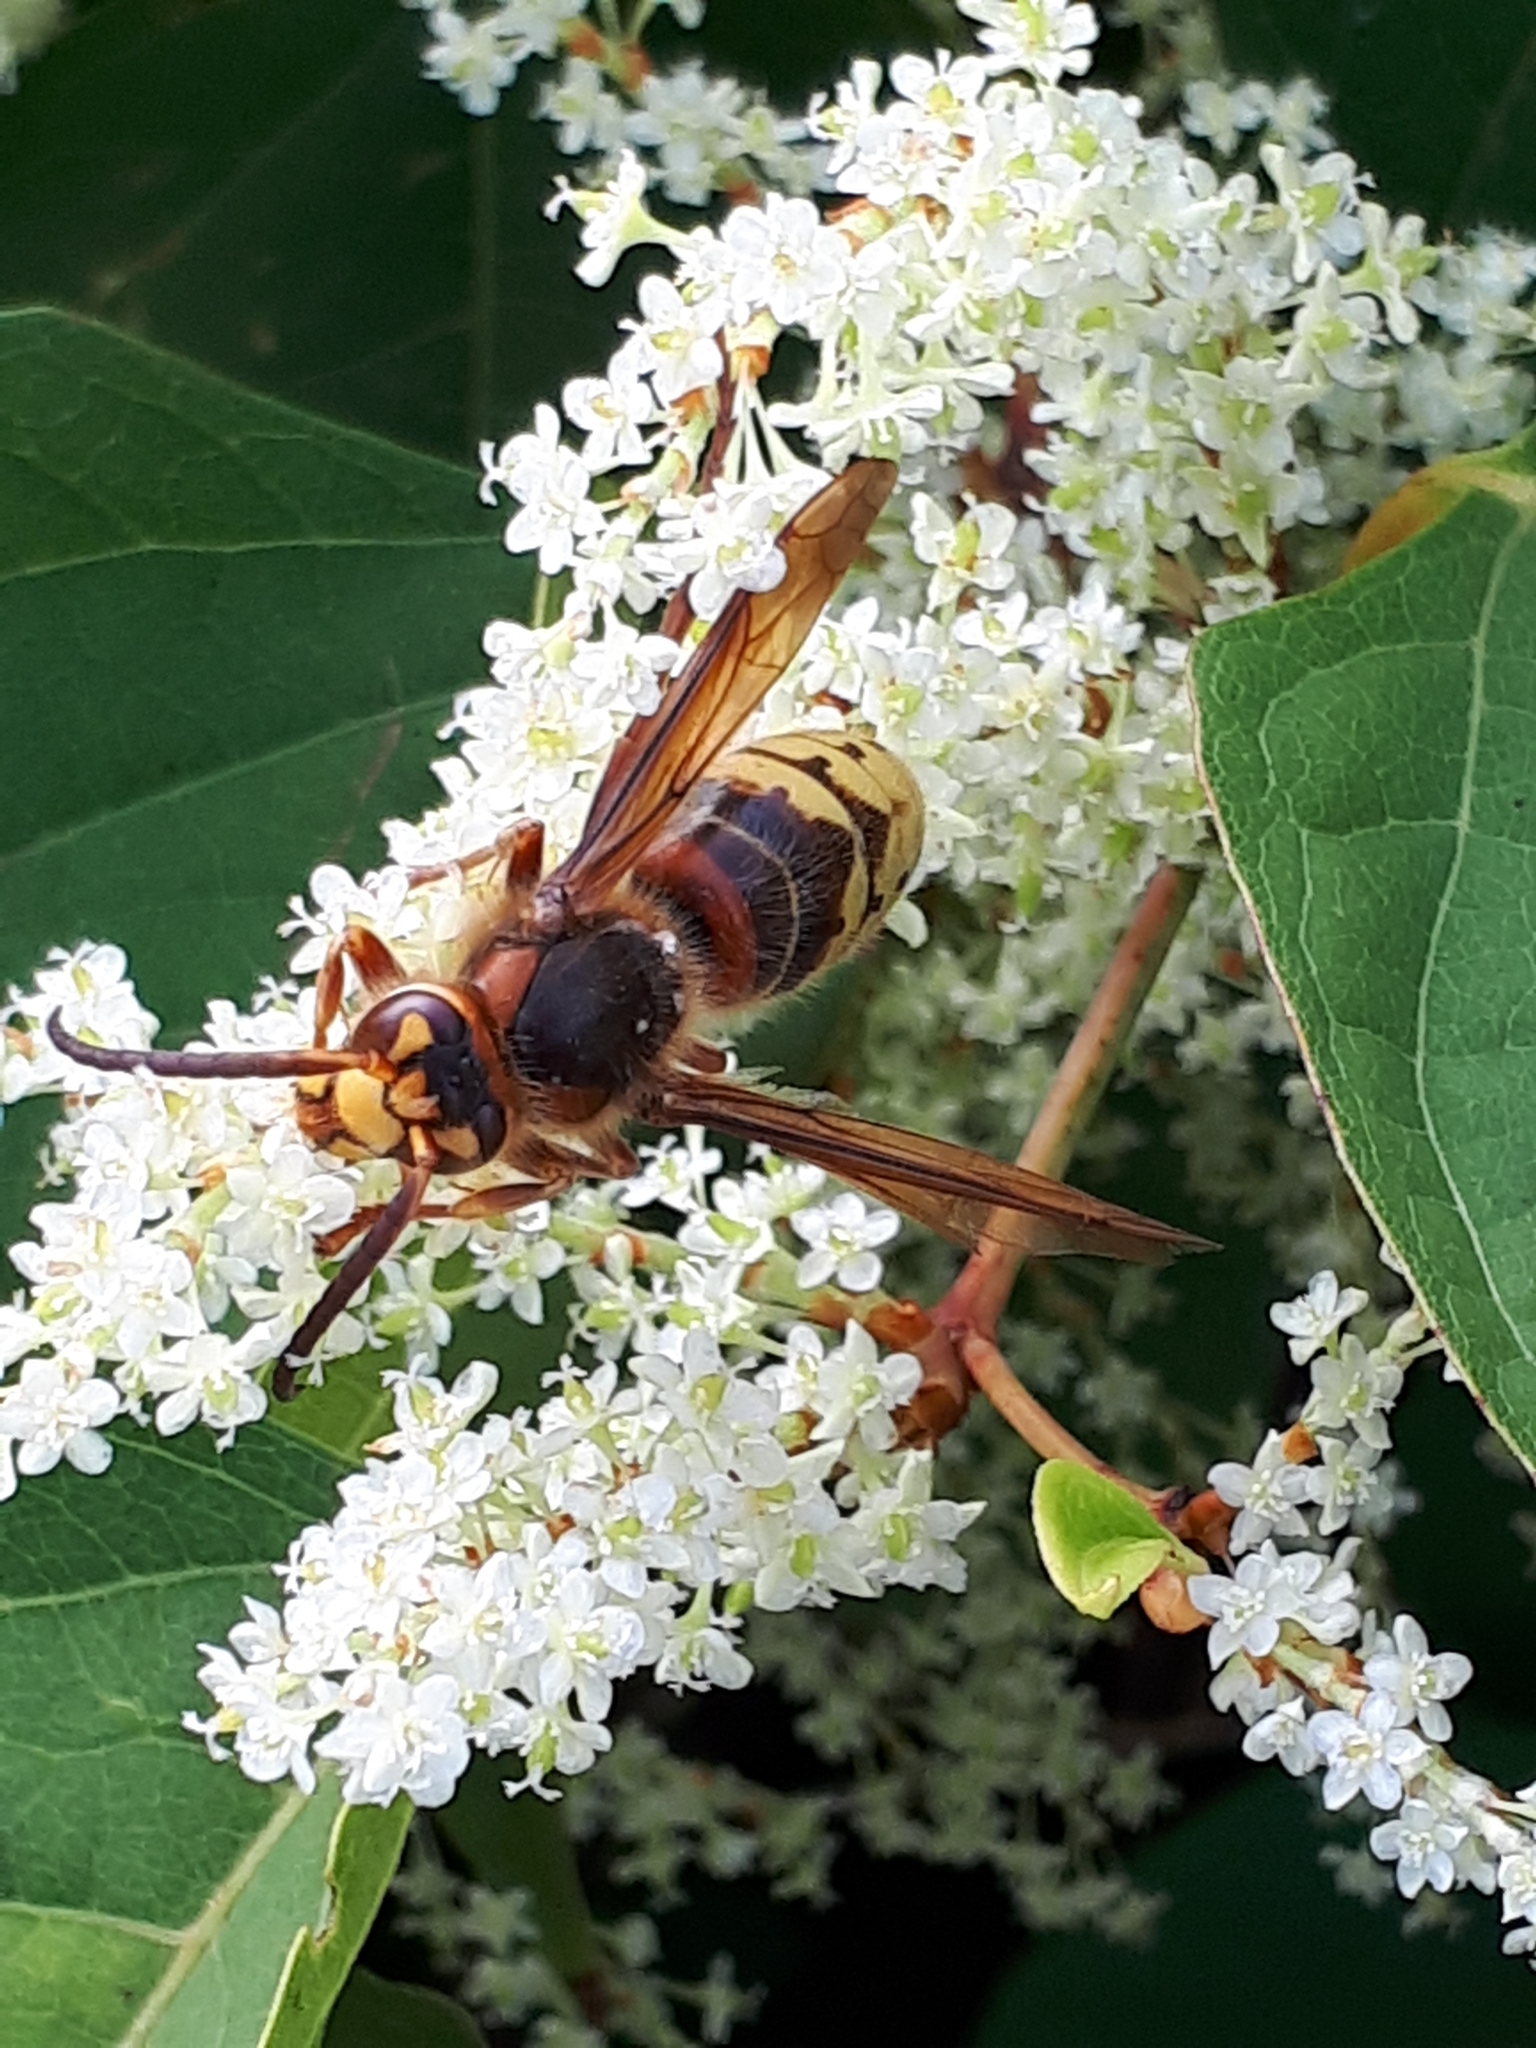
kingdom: Animalia
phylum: Arthropoda
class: Insecta
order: Hymenoptera
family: Vespidae
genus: Vespa
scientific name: Vespa crabro
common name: Hornet
